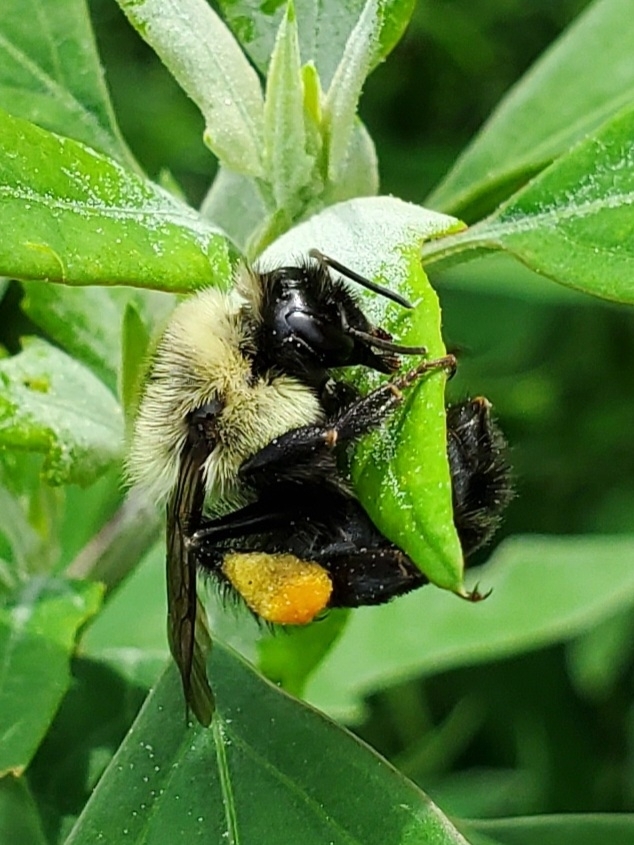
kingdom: Animalia
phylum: Arthropoda
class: Insecta
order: Hymenoptera
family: Apidae
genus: Bombus
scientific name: Bombus impatiens
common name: Common eastern bumble bee
